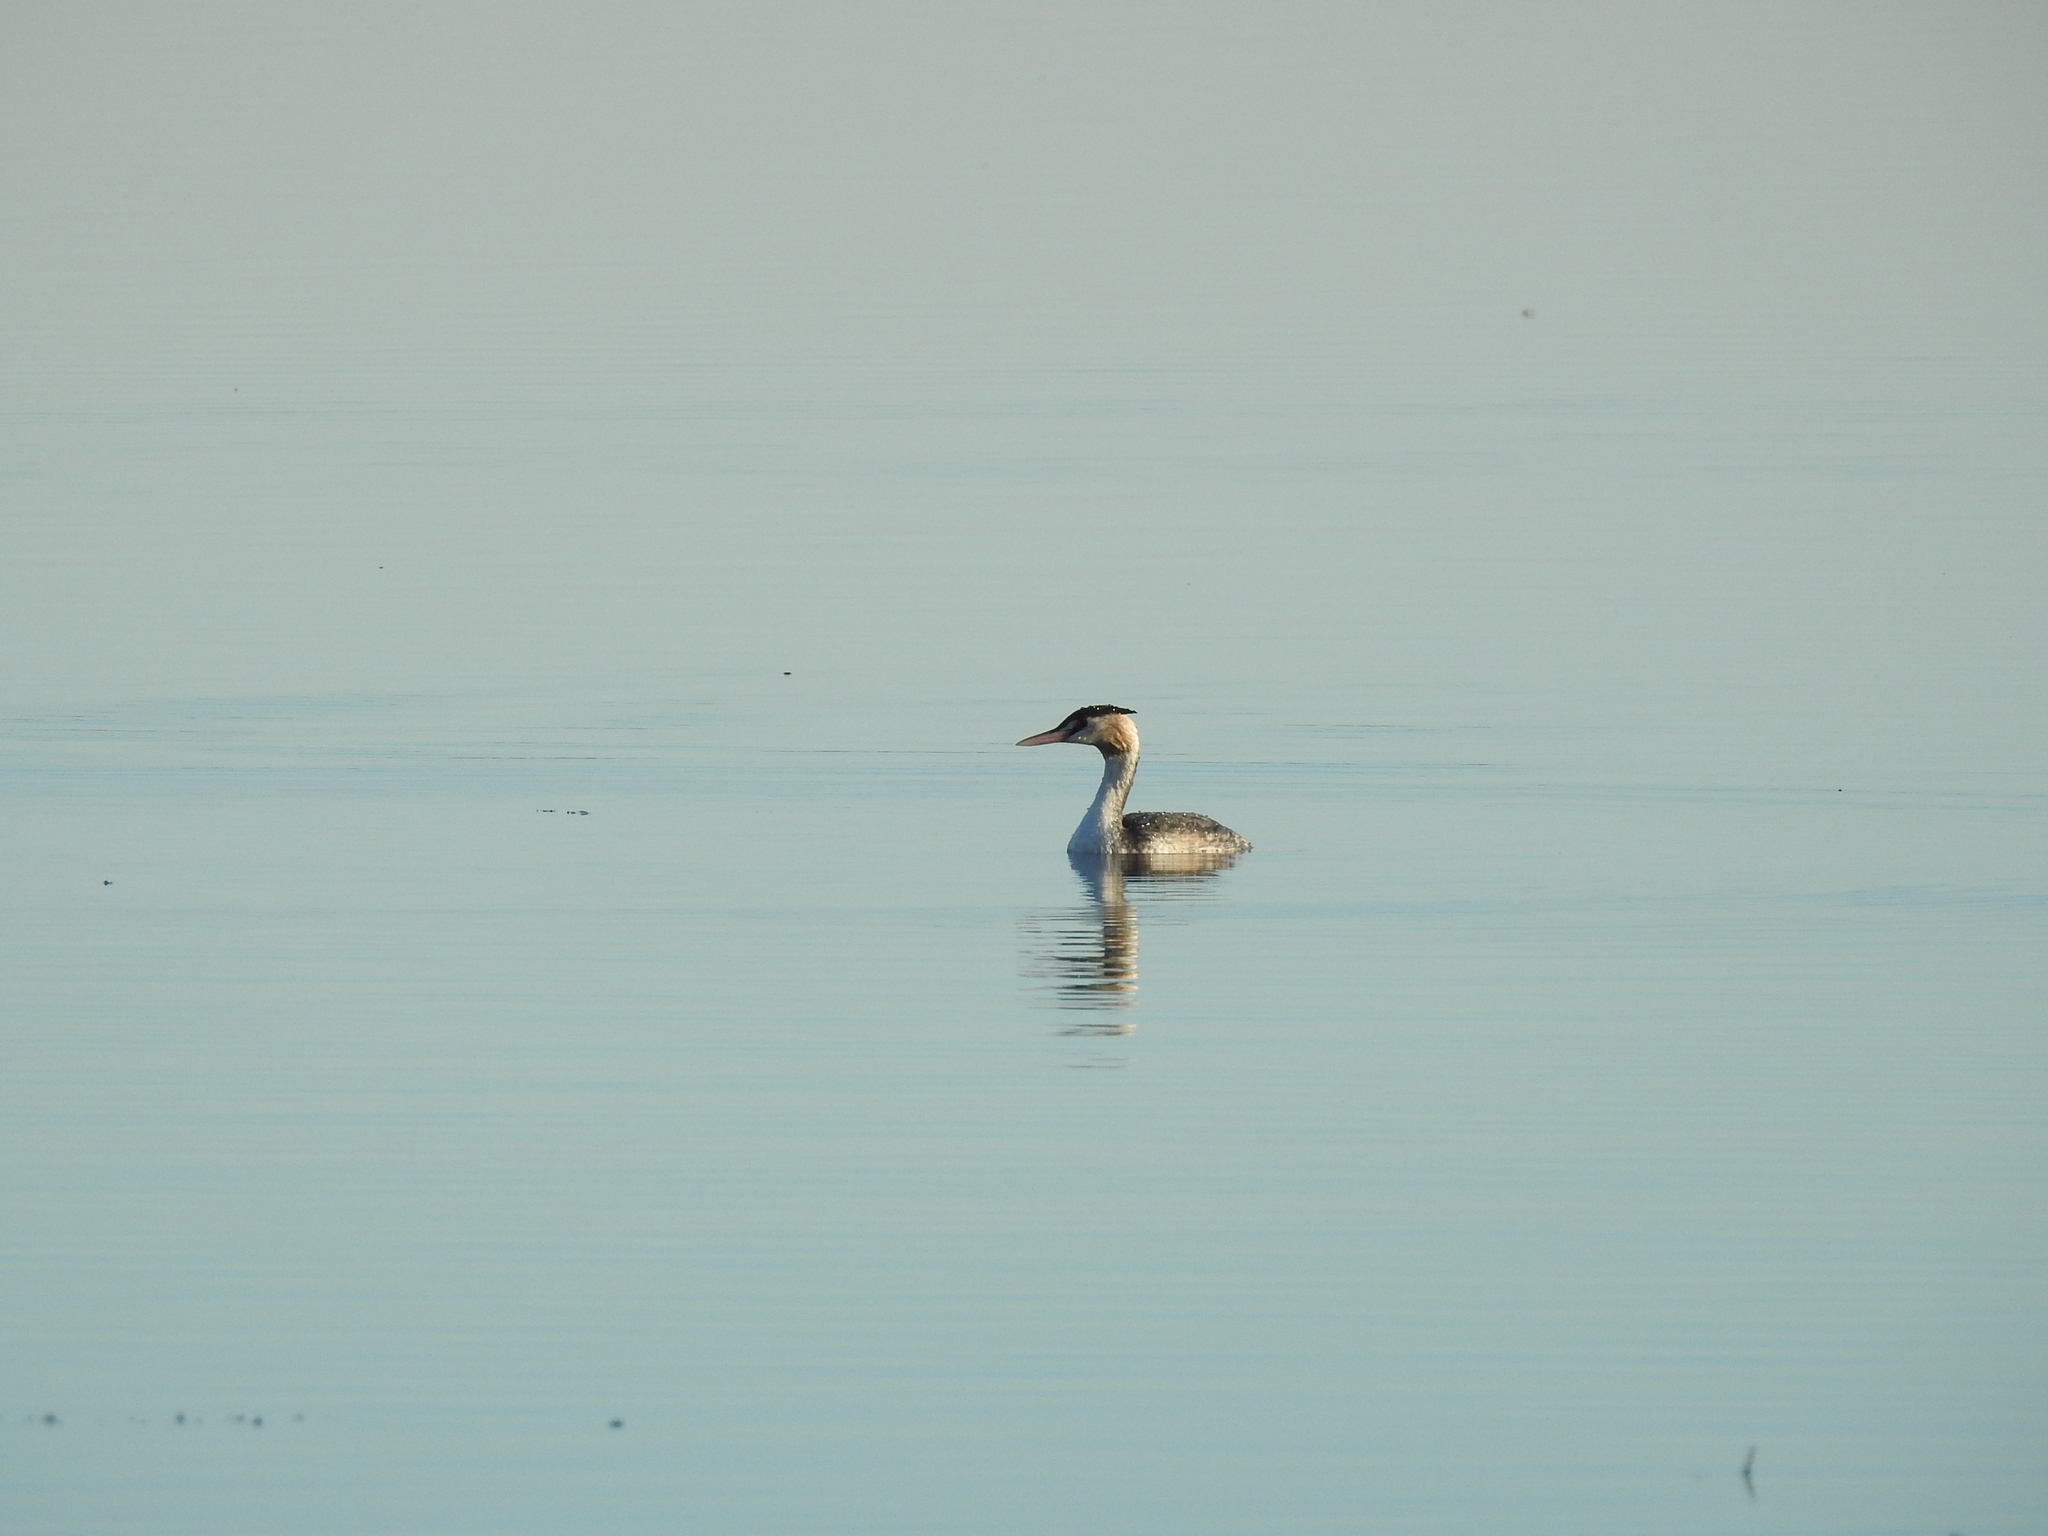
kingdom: Animalia
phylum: Chordata
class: Aves
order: Podicipediformes
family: Podicipedidae
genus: Podiceps
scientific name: Podiceps cristatus
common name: Great crested grebe
